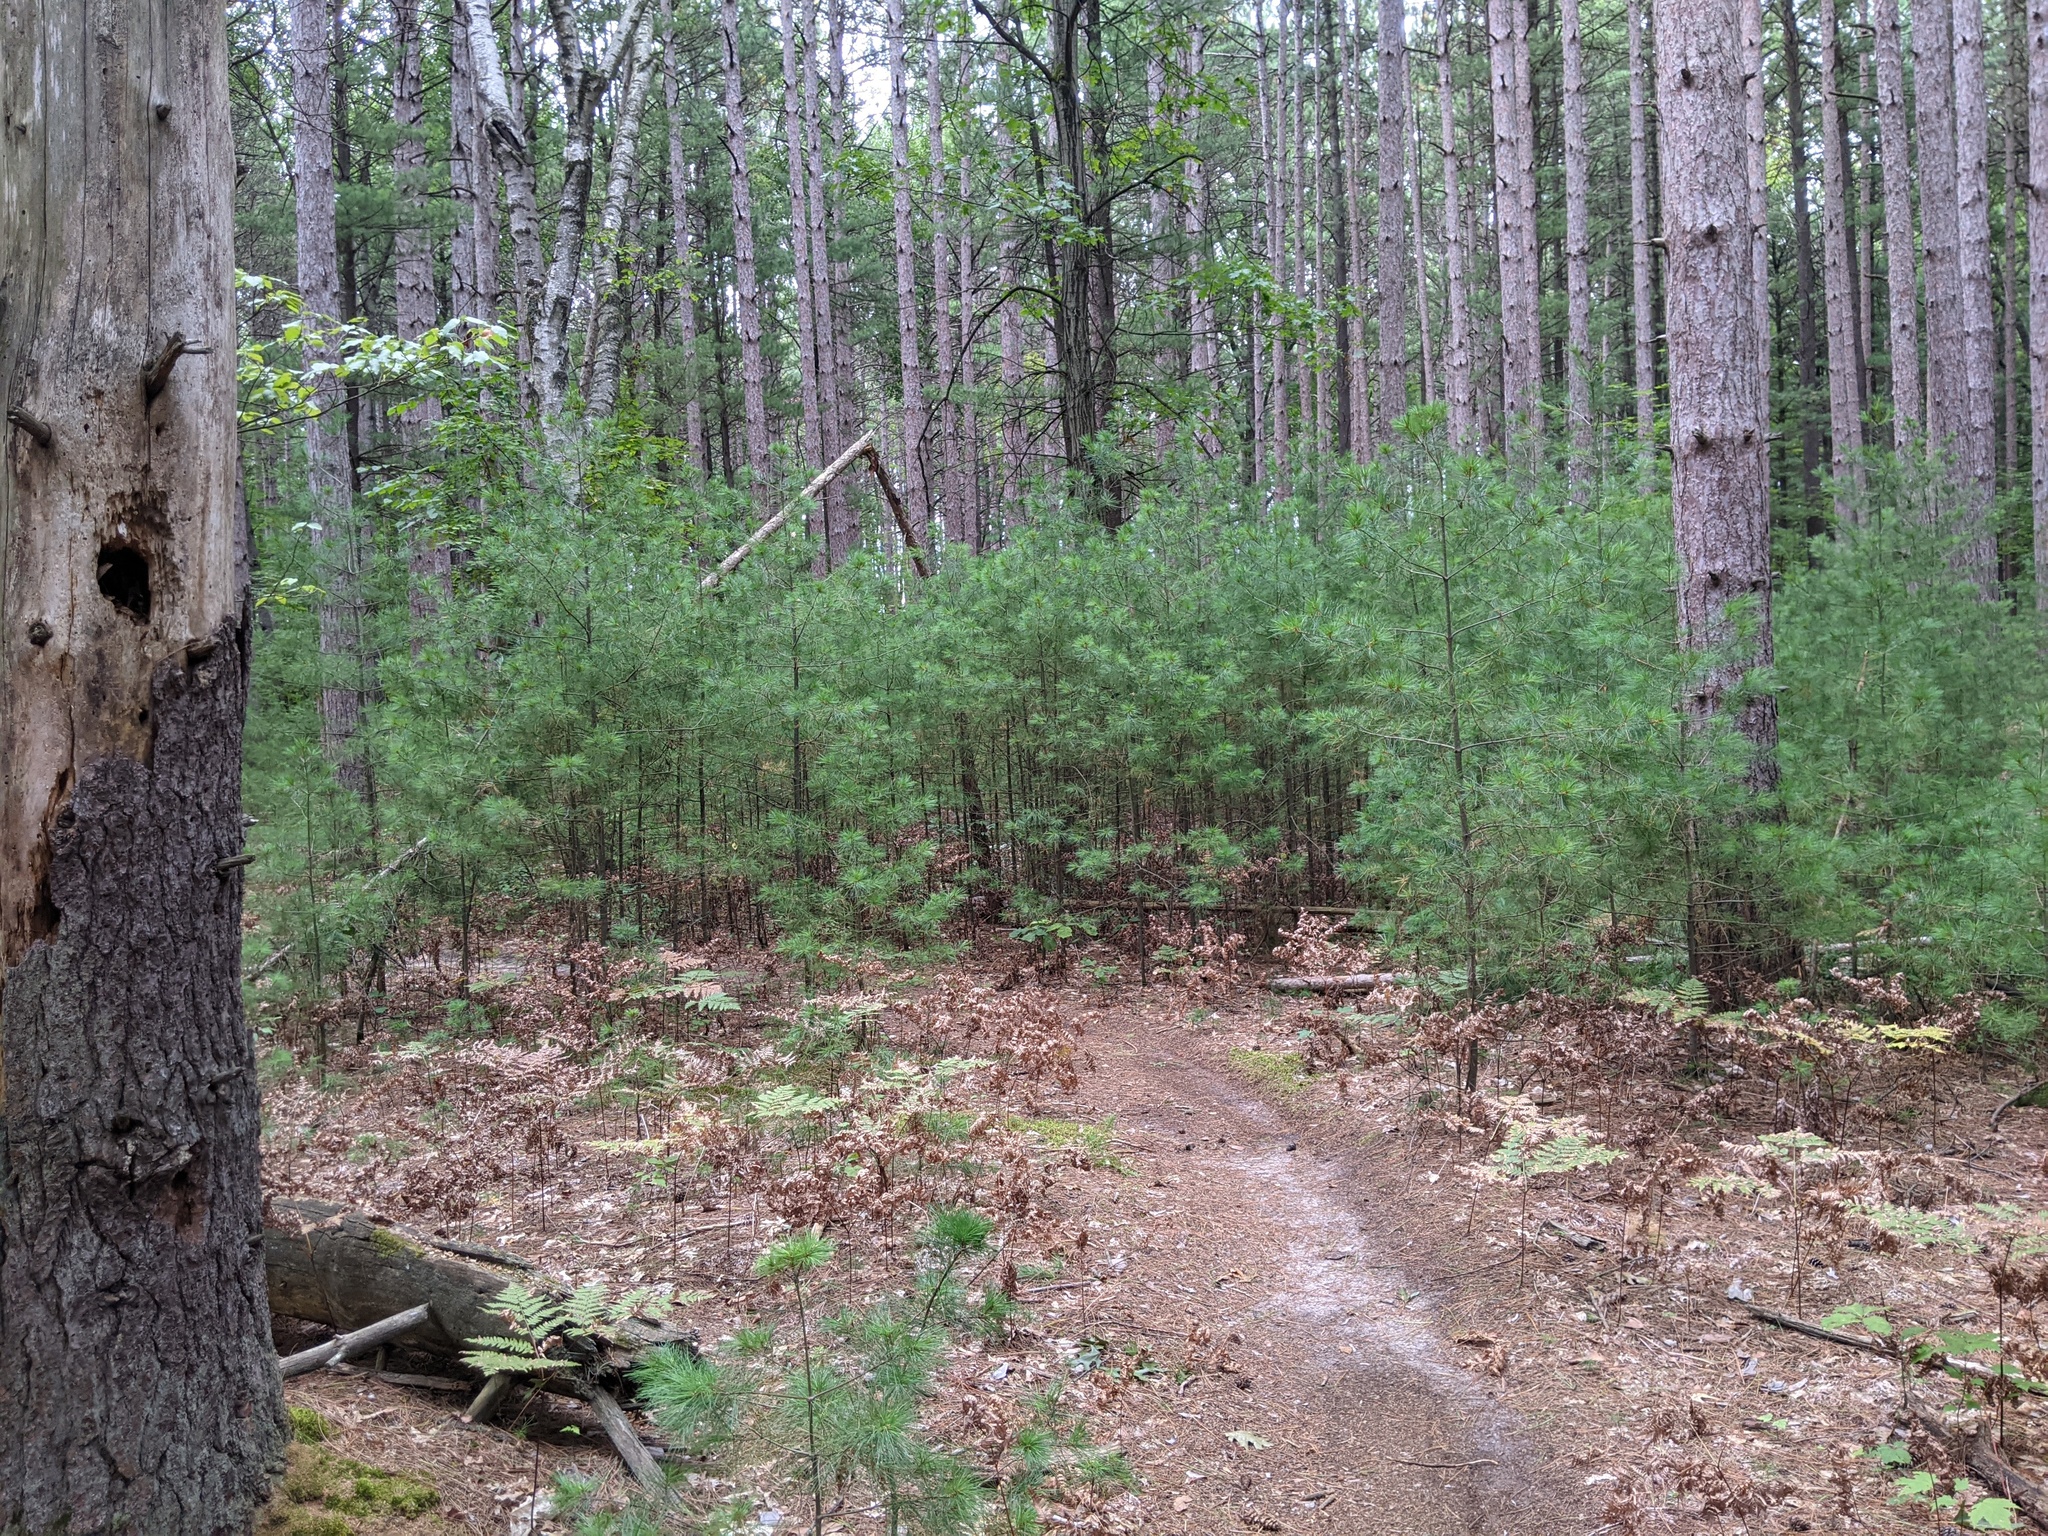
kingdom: Plantae
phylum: Tracheophyta
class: Pinopsida
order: Pinales
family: Pinaceae
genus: Pinus
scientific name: Pinus strobus
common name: Weymouth pine
